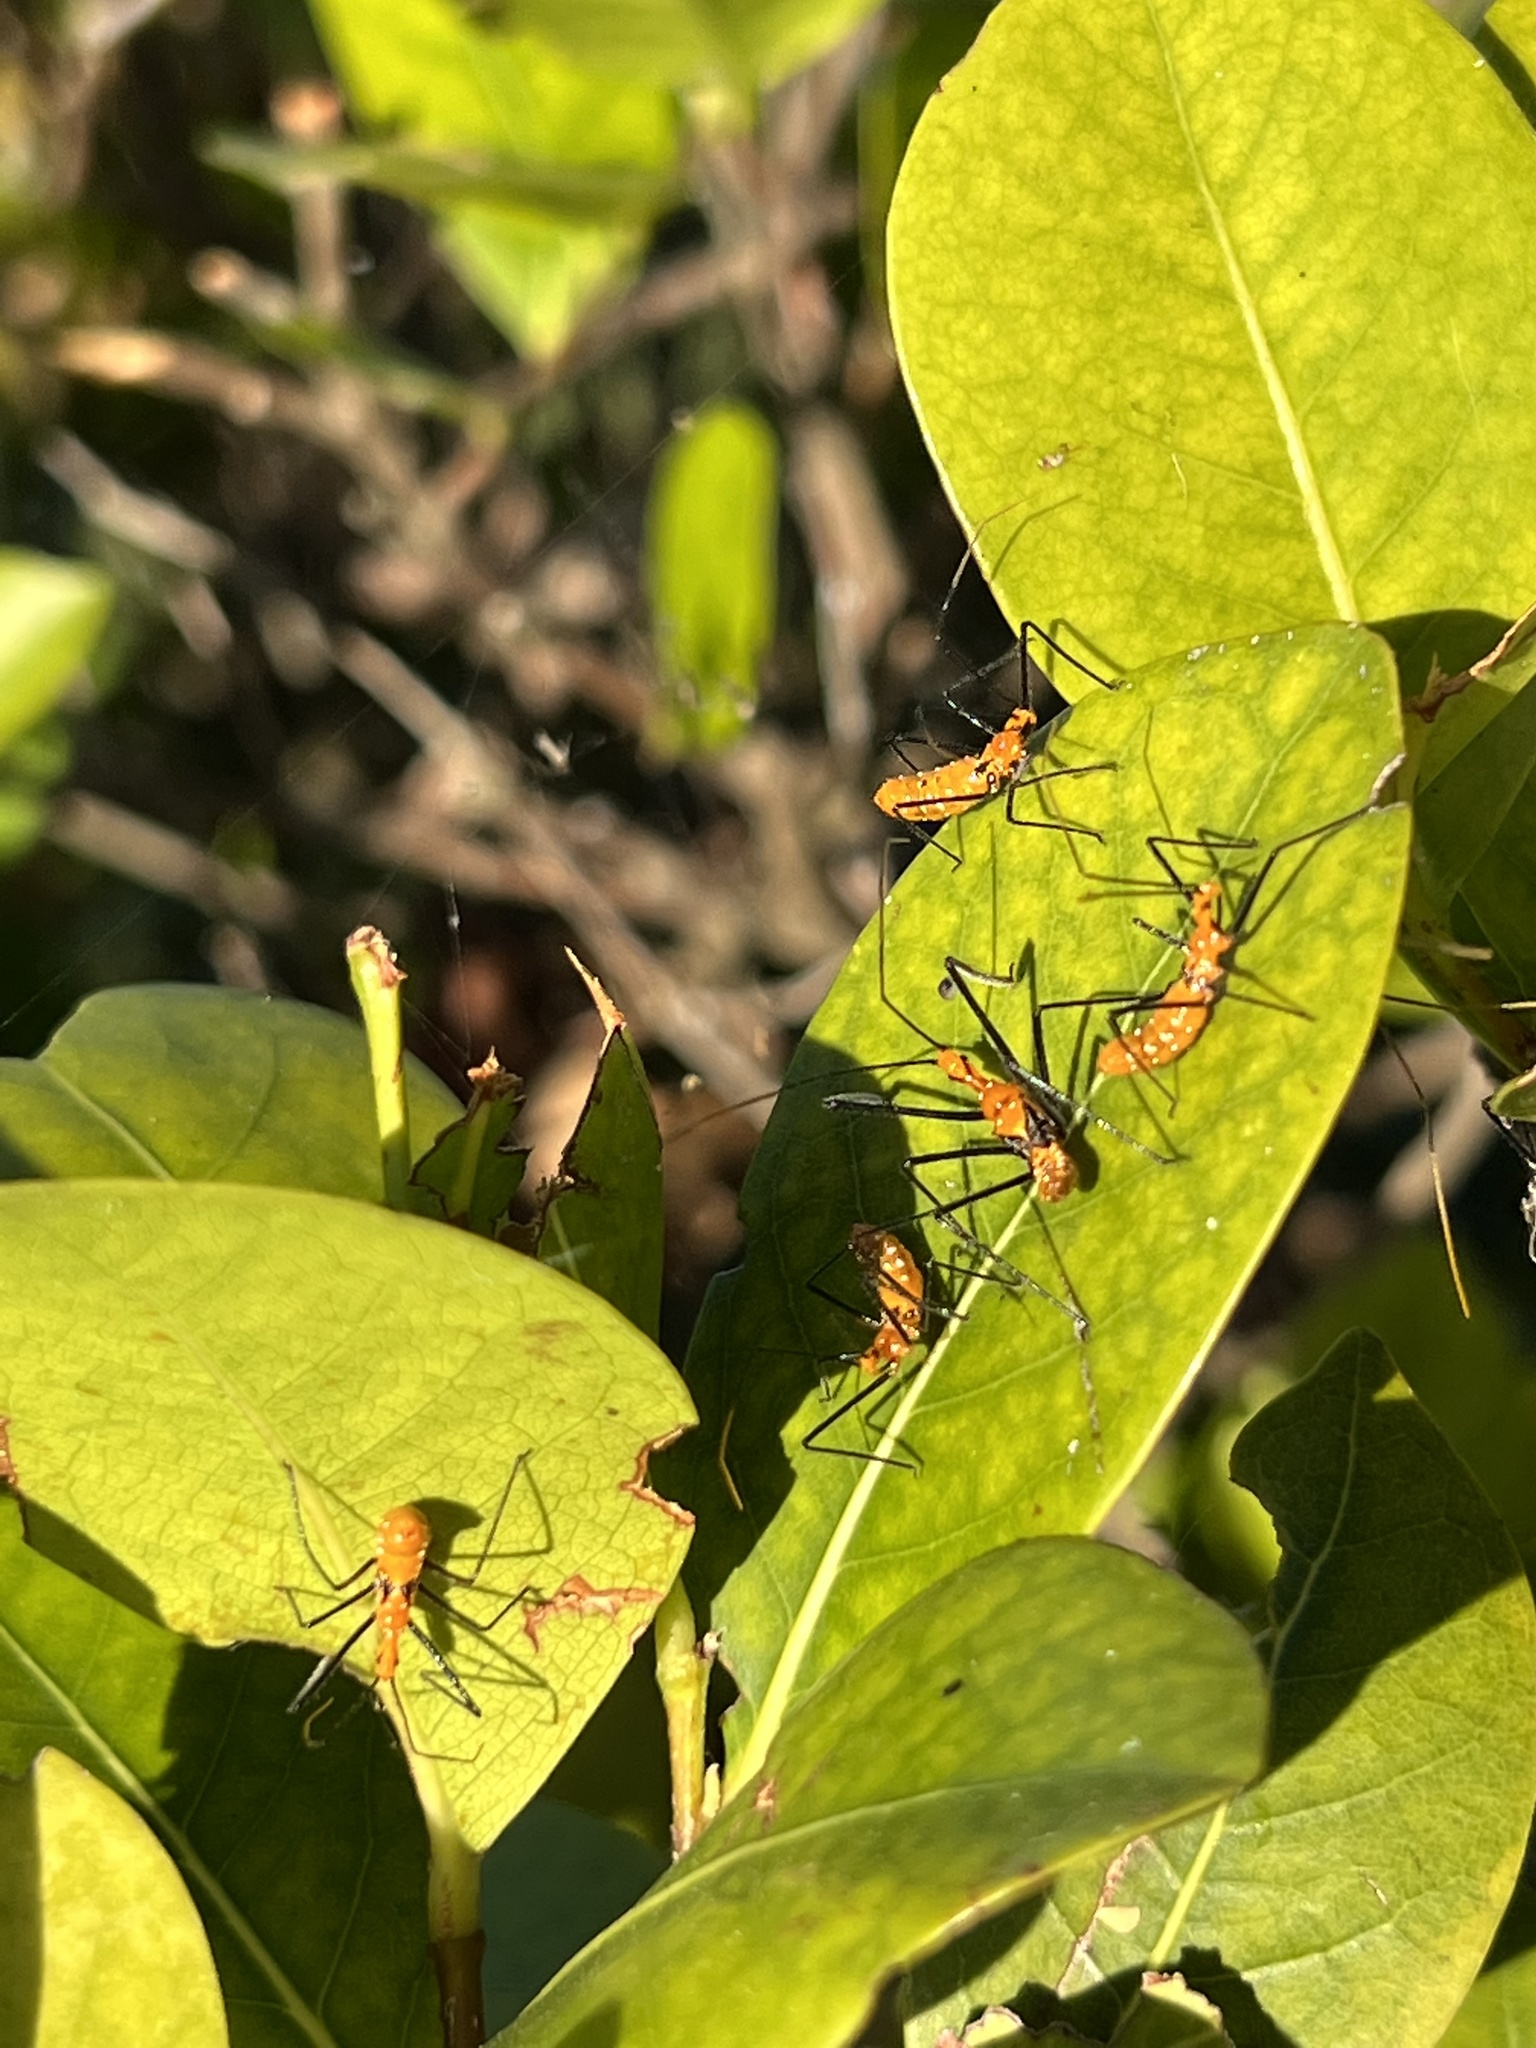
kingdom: Animalia
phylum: Arthropoda
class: Insecta
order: Hemiptera
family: Reduviidae
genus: Zelus
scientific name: Zelus longipes
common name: Milkweed assassin bug
